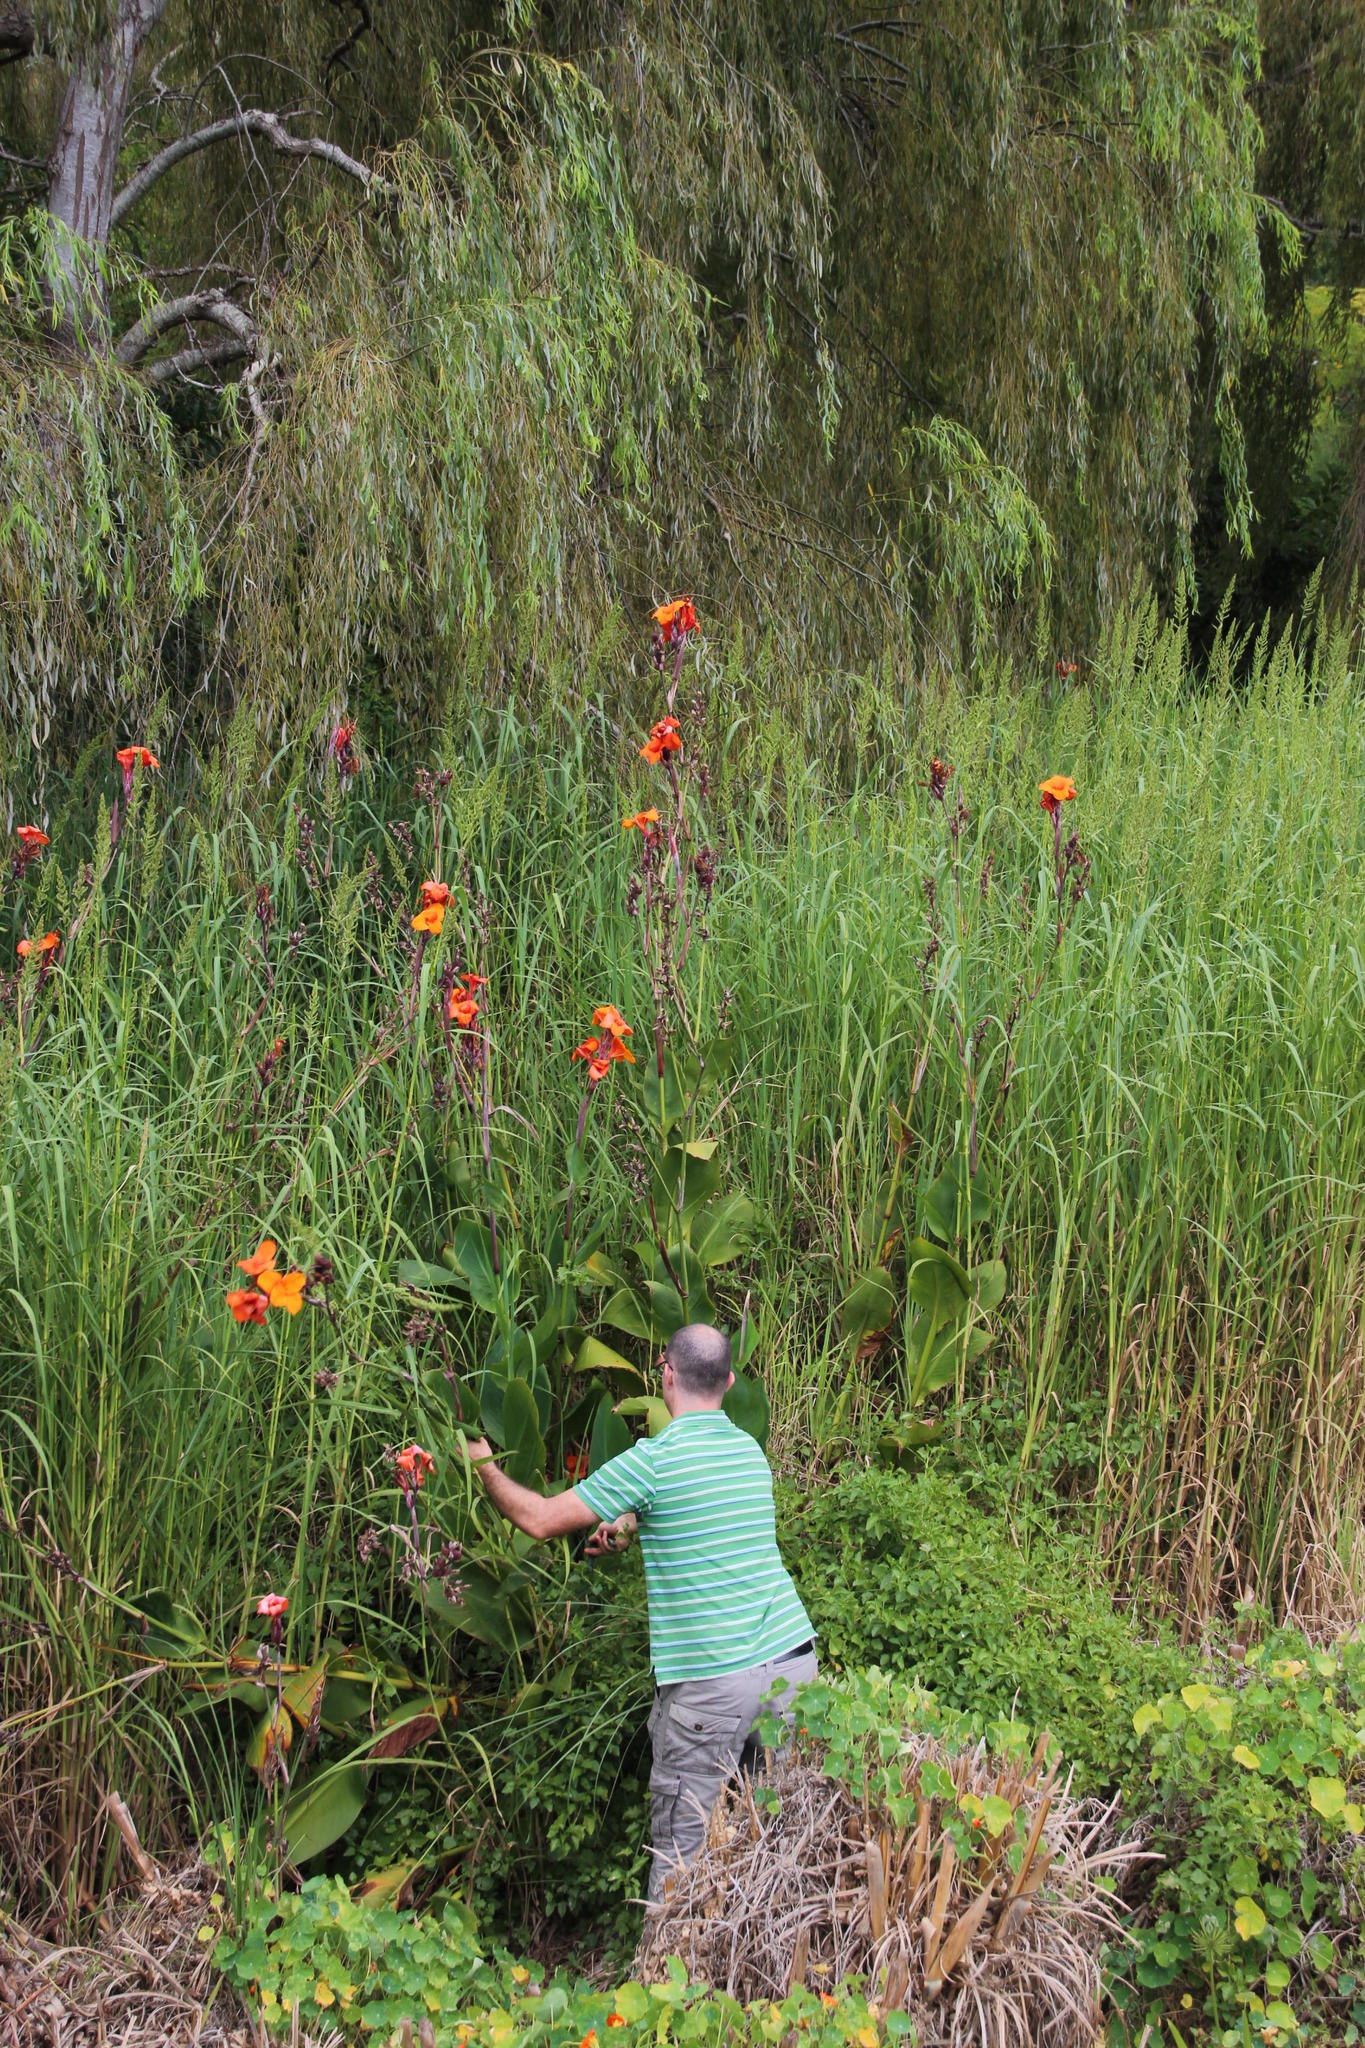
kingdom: Plantae
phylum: Tracheophyta
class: Liliopsida
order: Zingiberales
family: Cannaceae
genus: Canna
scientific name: Canna indica
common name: Indian shot
